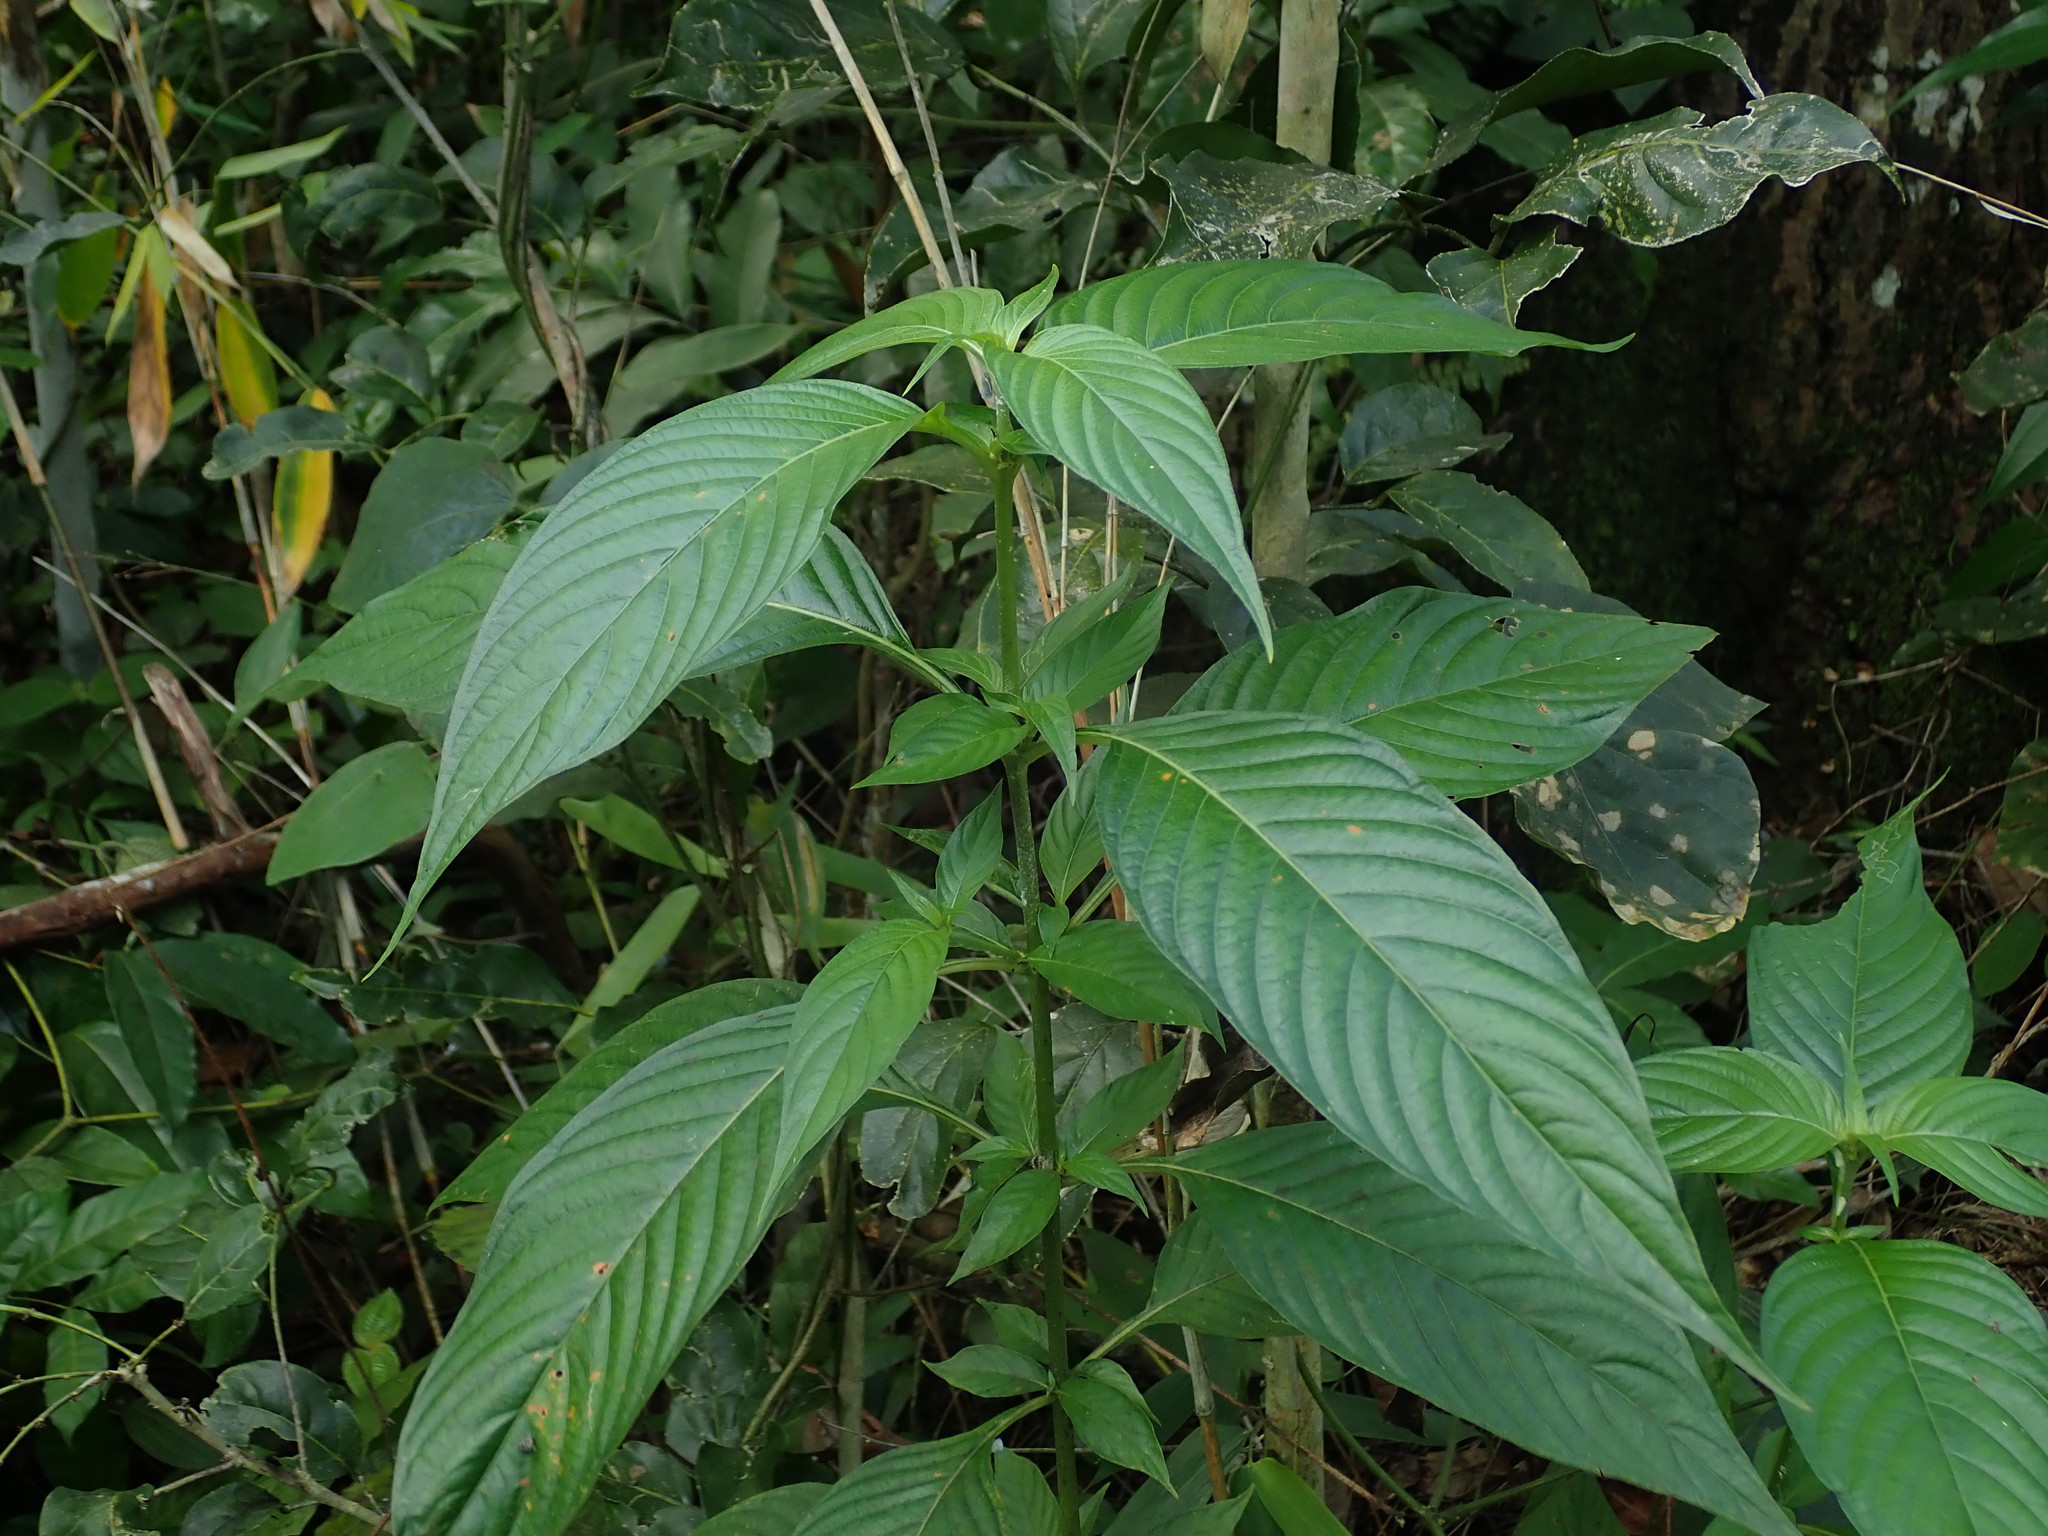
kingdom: Plantae
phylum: Tracheophyta
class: Magnoliopsida
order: Gentianales
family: Rubiaceae
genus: Gonzalagunia
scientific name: Gonzalagunia hirsuta
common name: Mata de mariposa
